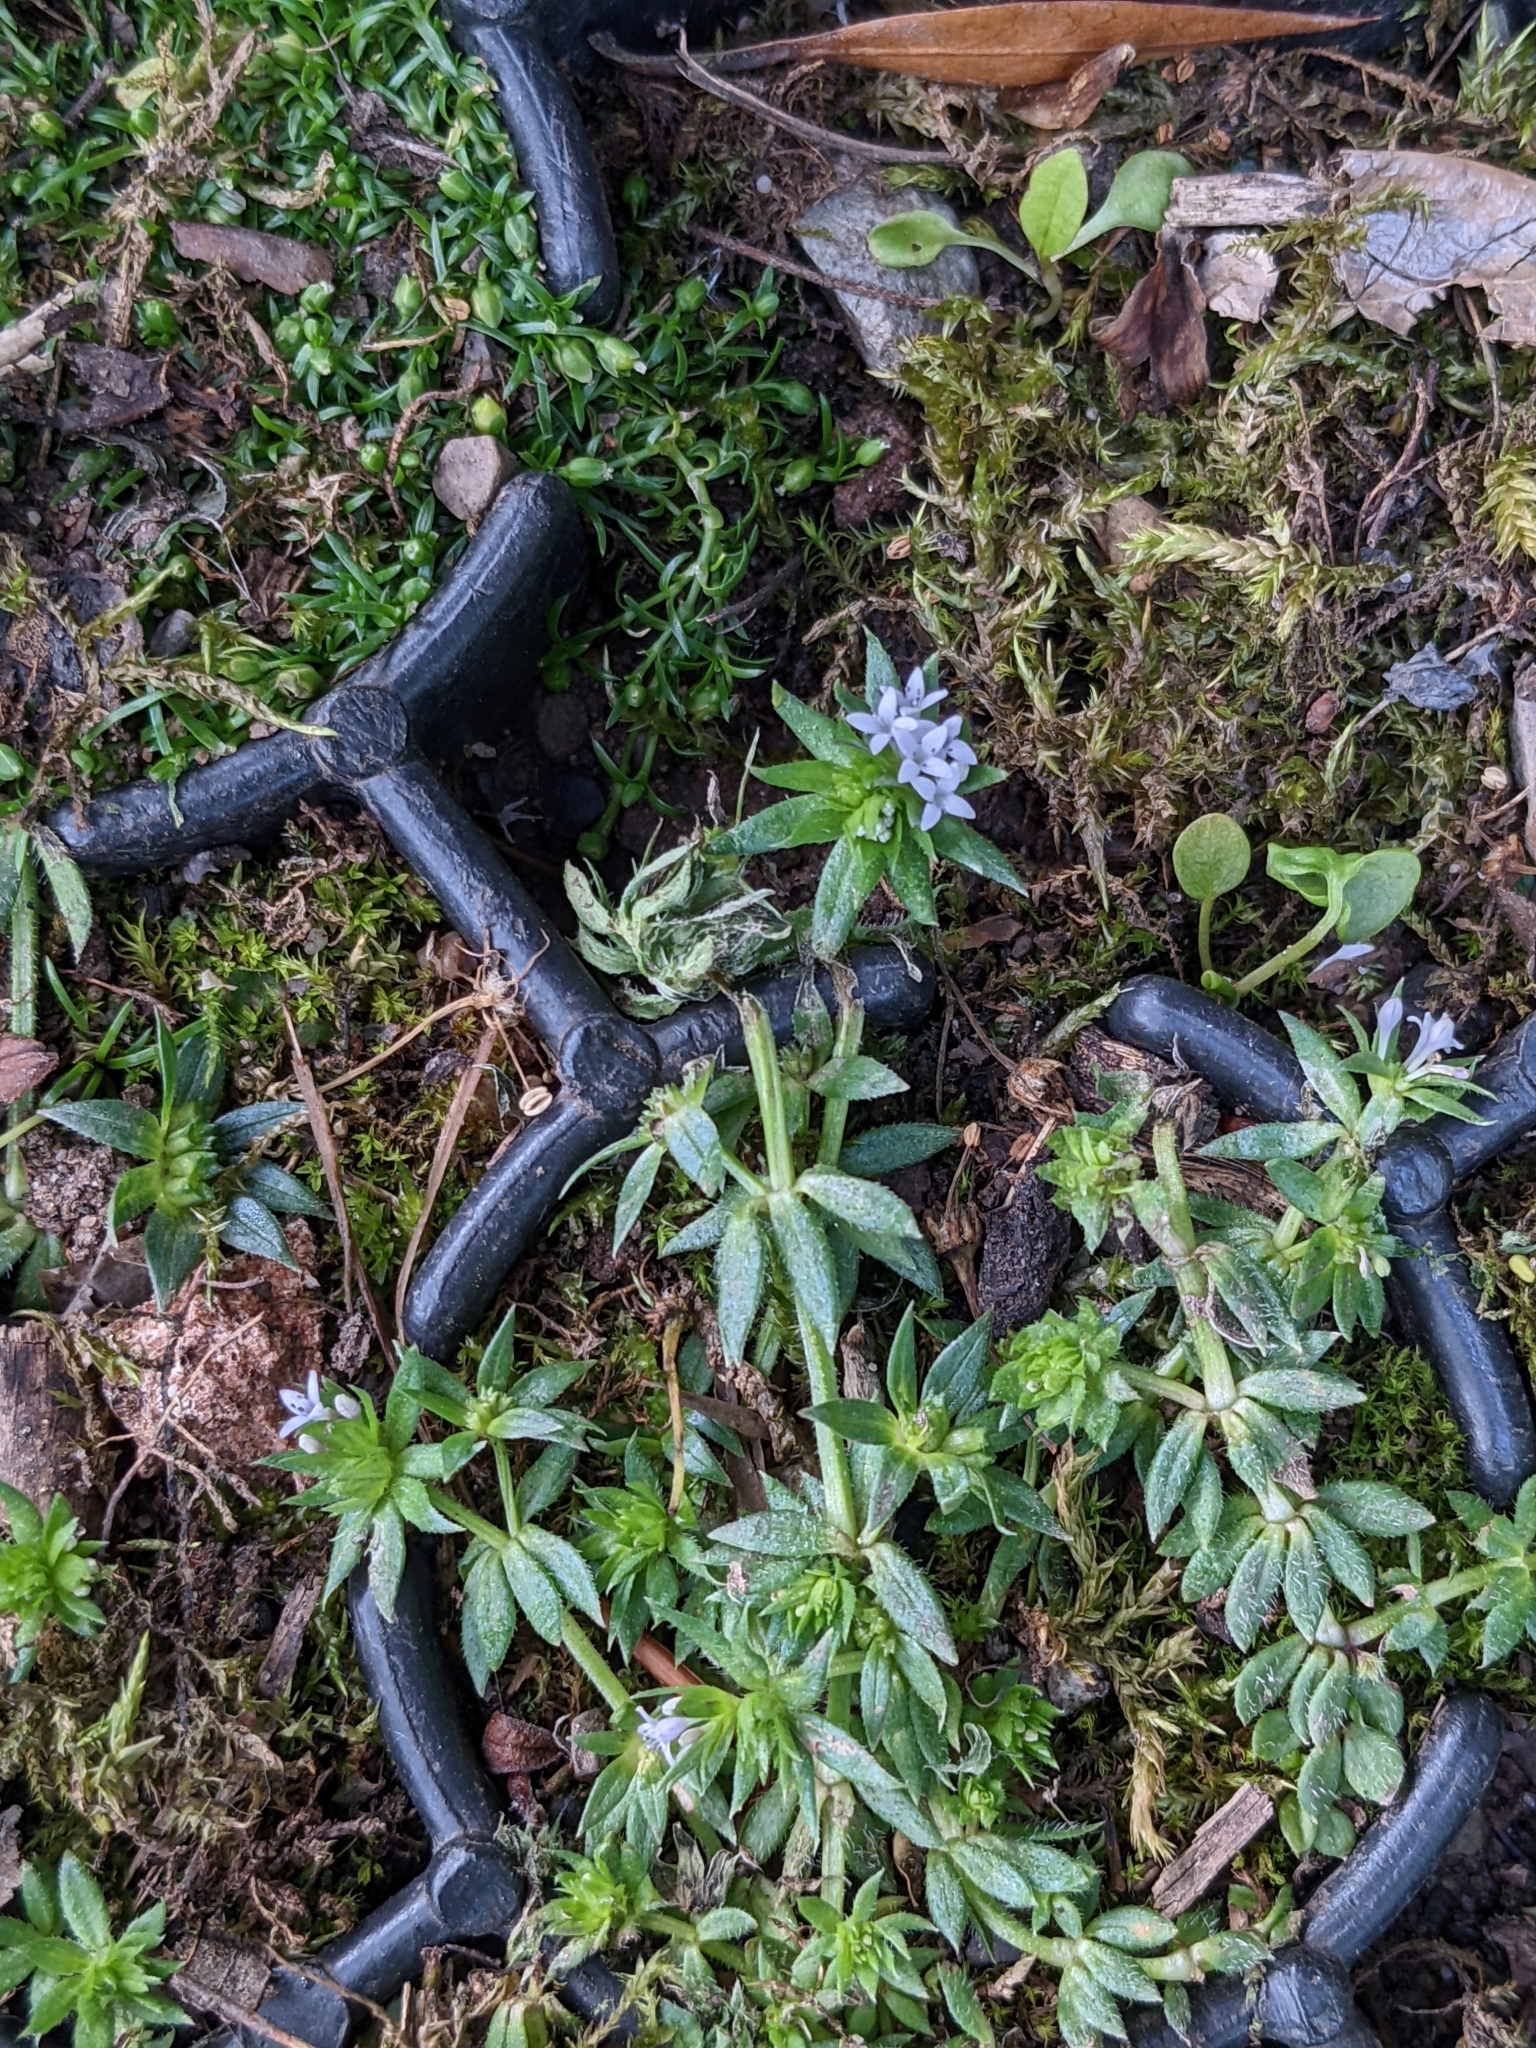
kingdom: Plantae
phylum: Tracheophyta
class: Magnoliopsida
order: Gentianales
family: Rubiaceae
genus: Sherardia
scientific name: Sherardia arvensis
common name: Field madder
